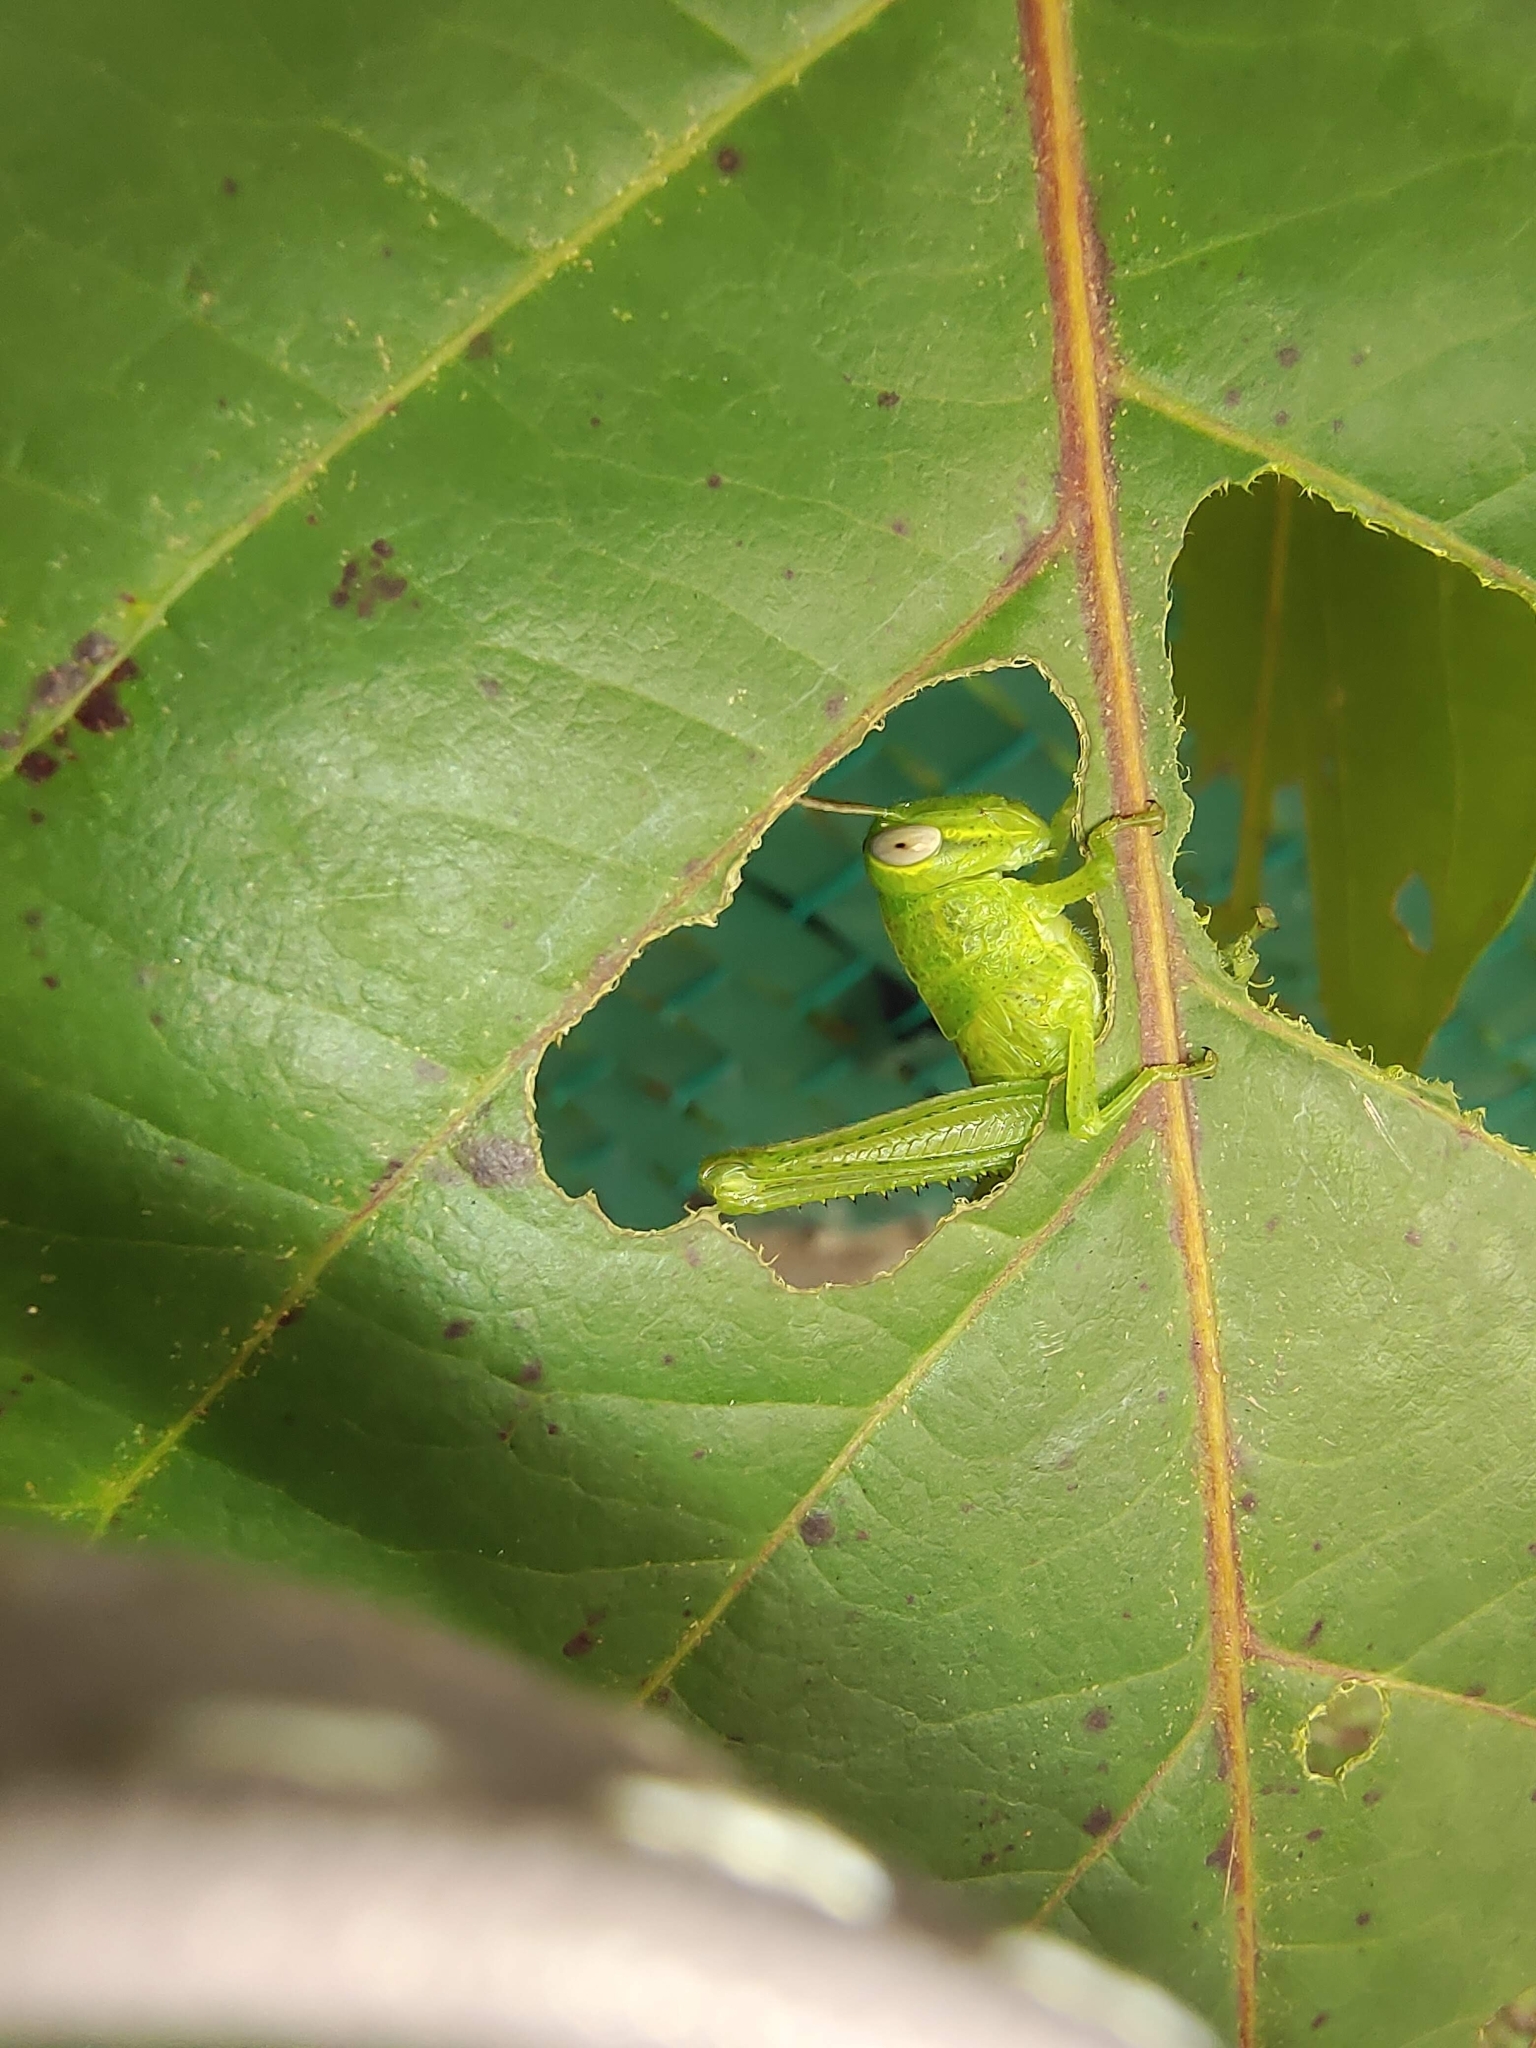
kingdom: Animalia
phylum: Arthropoda
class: Insecta
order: Orthoptera
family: Acrididae
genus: Valanga
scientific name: Valanga nigricornis
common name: Javanese bird grasshopper
